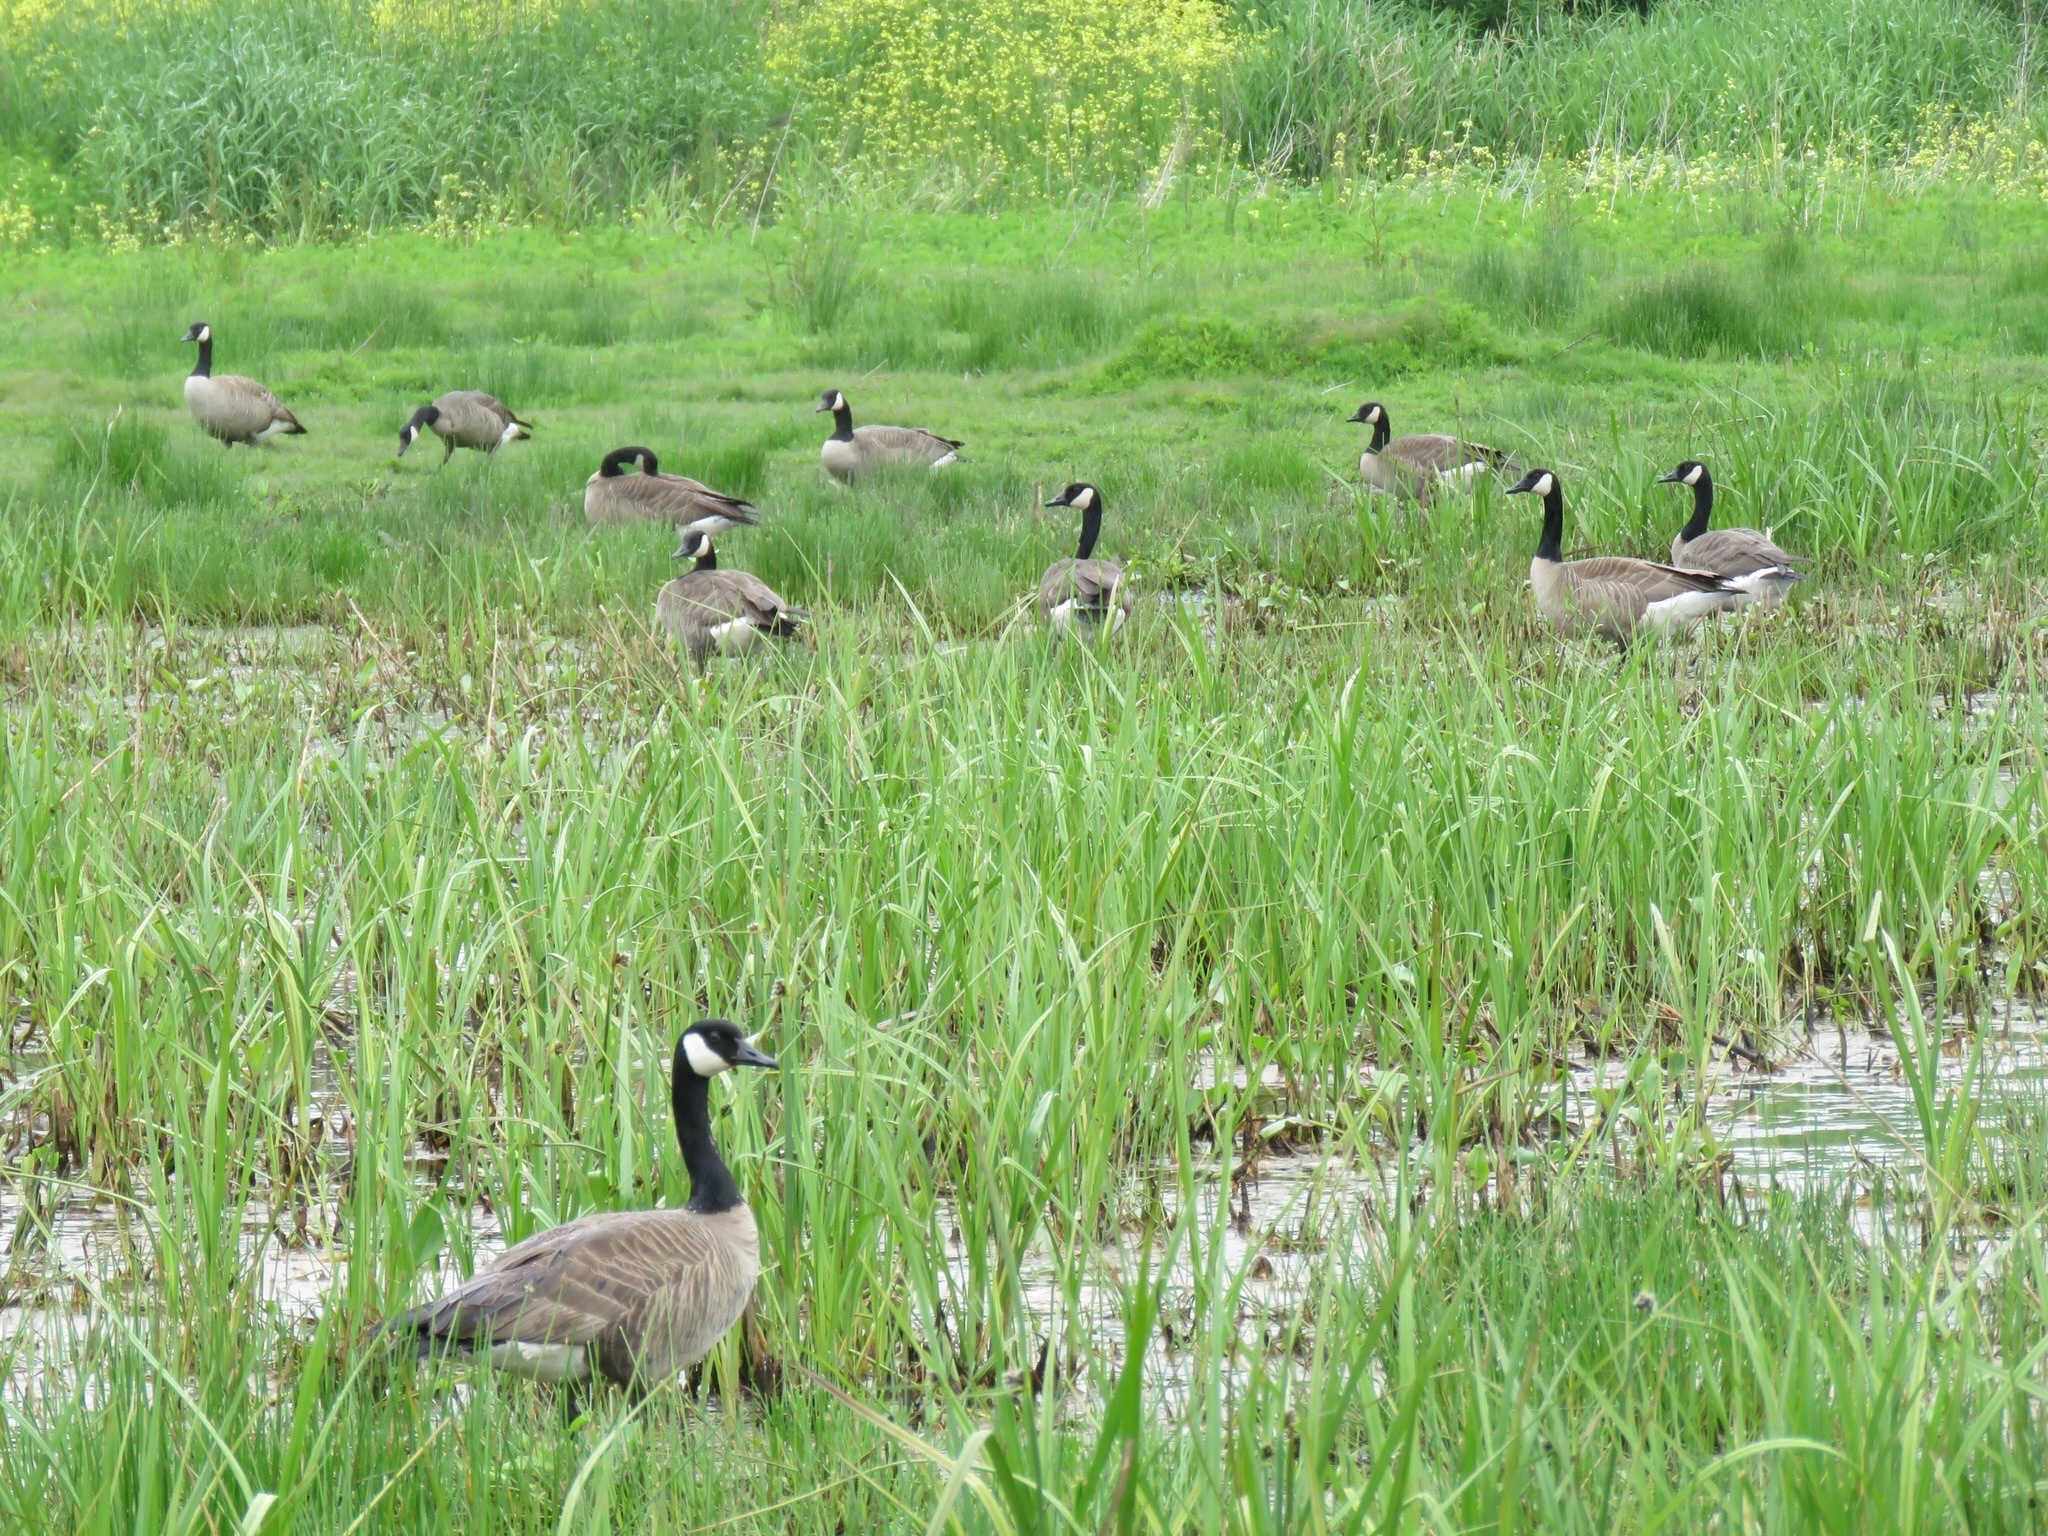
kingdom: Animalia
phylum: Chordata
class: Aves
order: Anseriformes
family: Anatidae
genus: Branta
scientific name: Branta canadensis
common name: Canada goose
